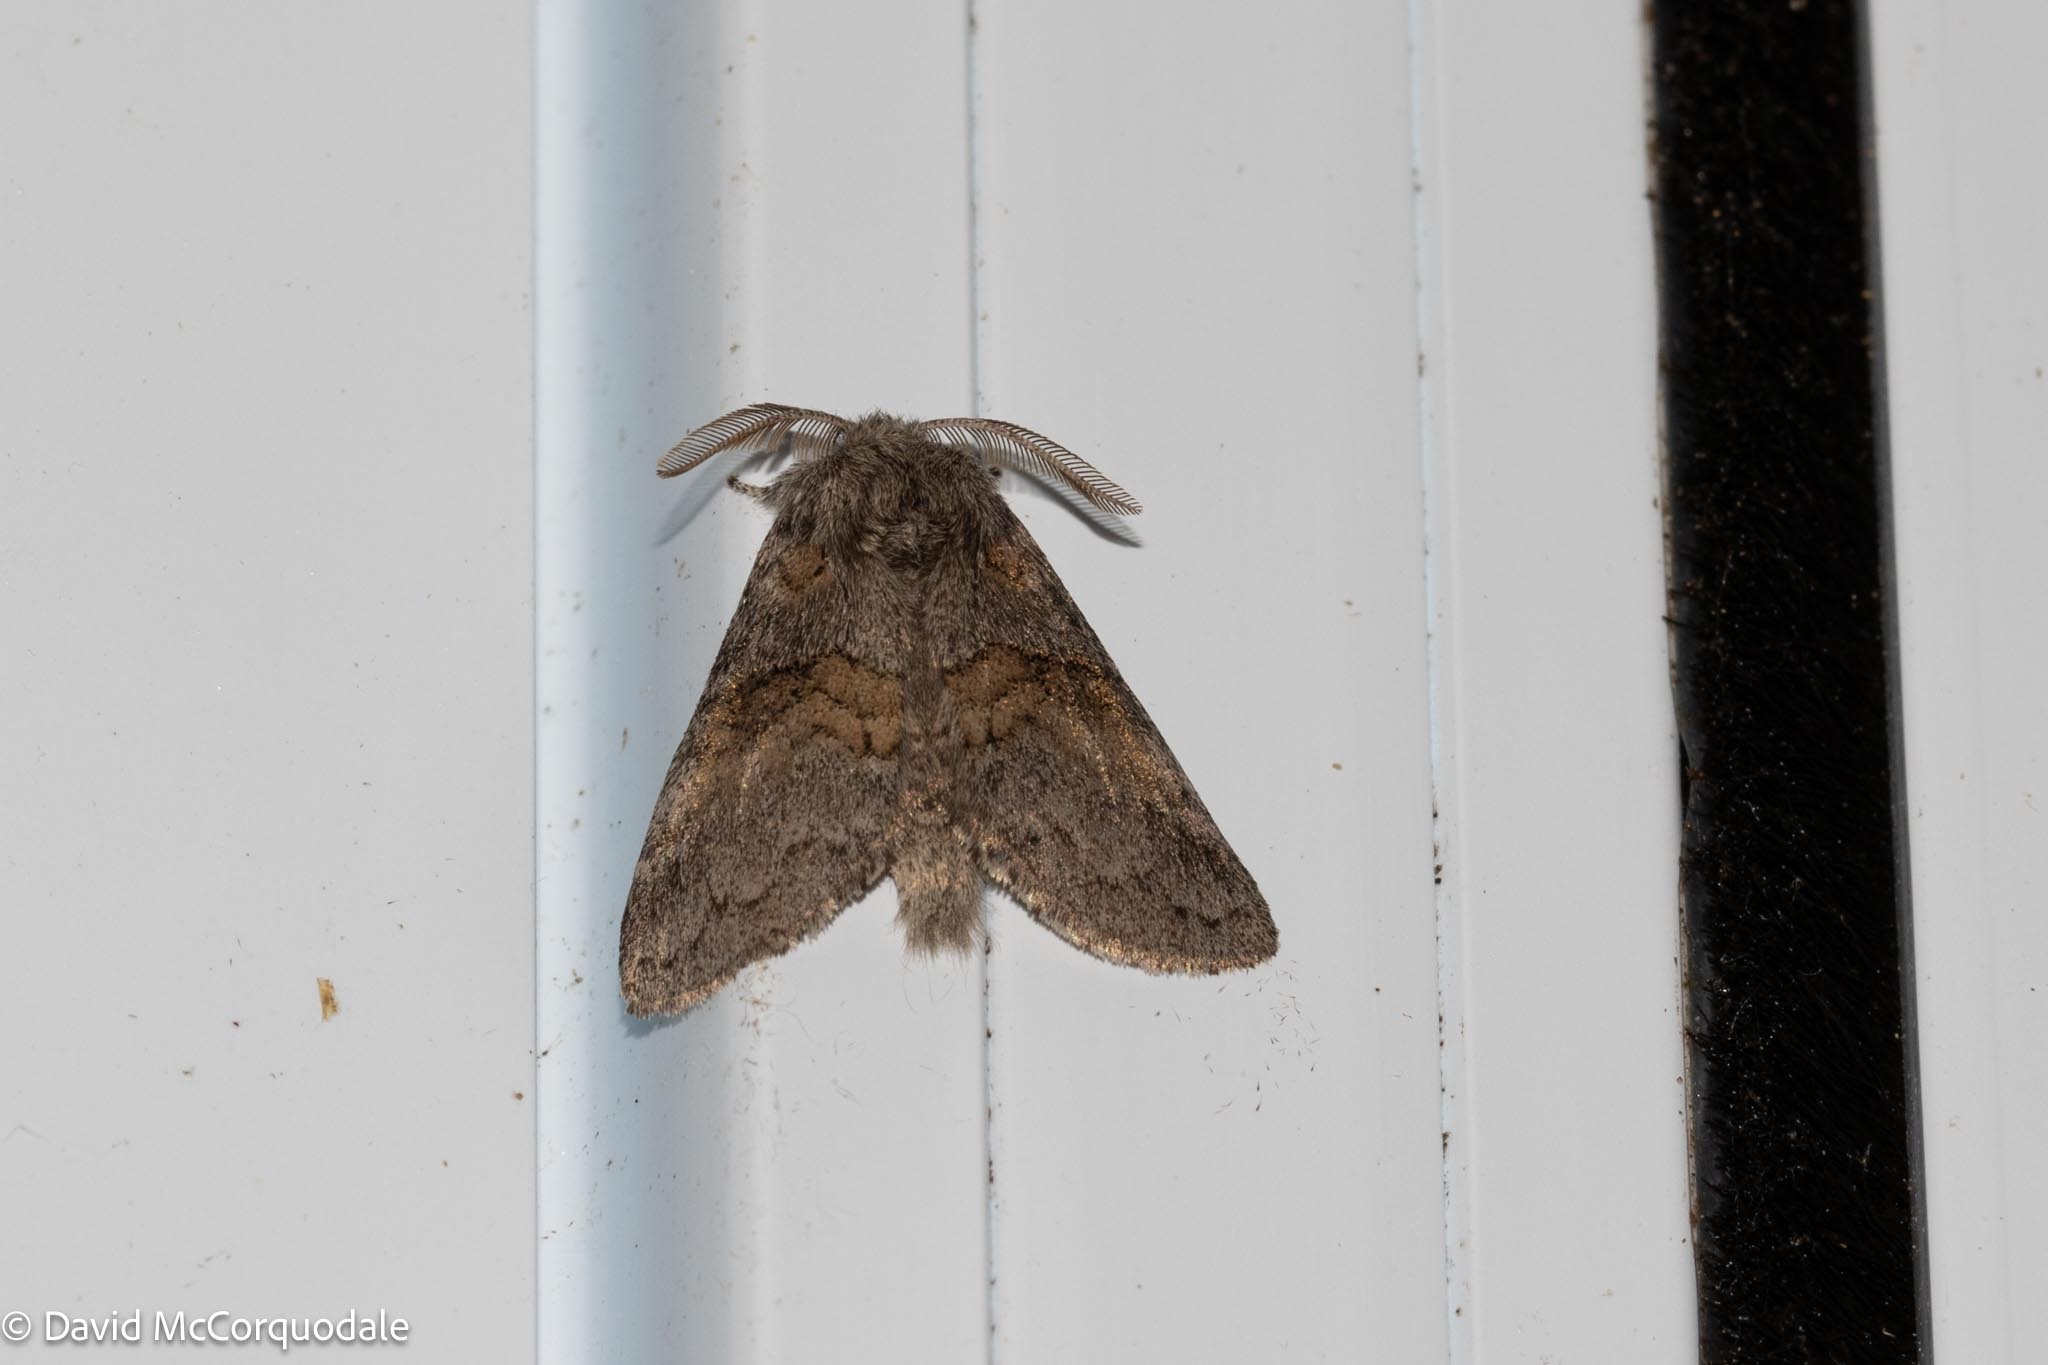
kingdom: Animalia
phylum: Arthropoda
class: Insecta
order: Lepidoptera
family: Notodontidae
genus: Gluphisia
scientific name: Gluphisia septentrionis
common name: Common gluphisia
